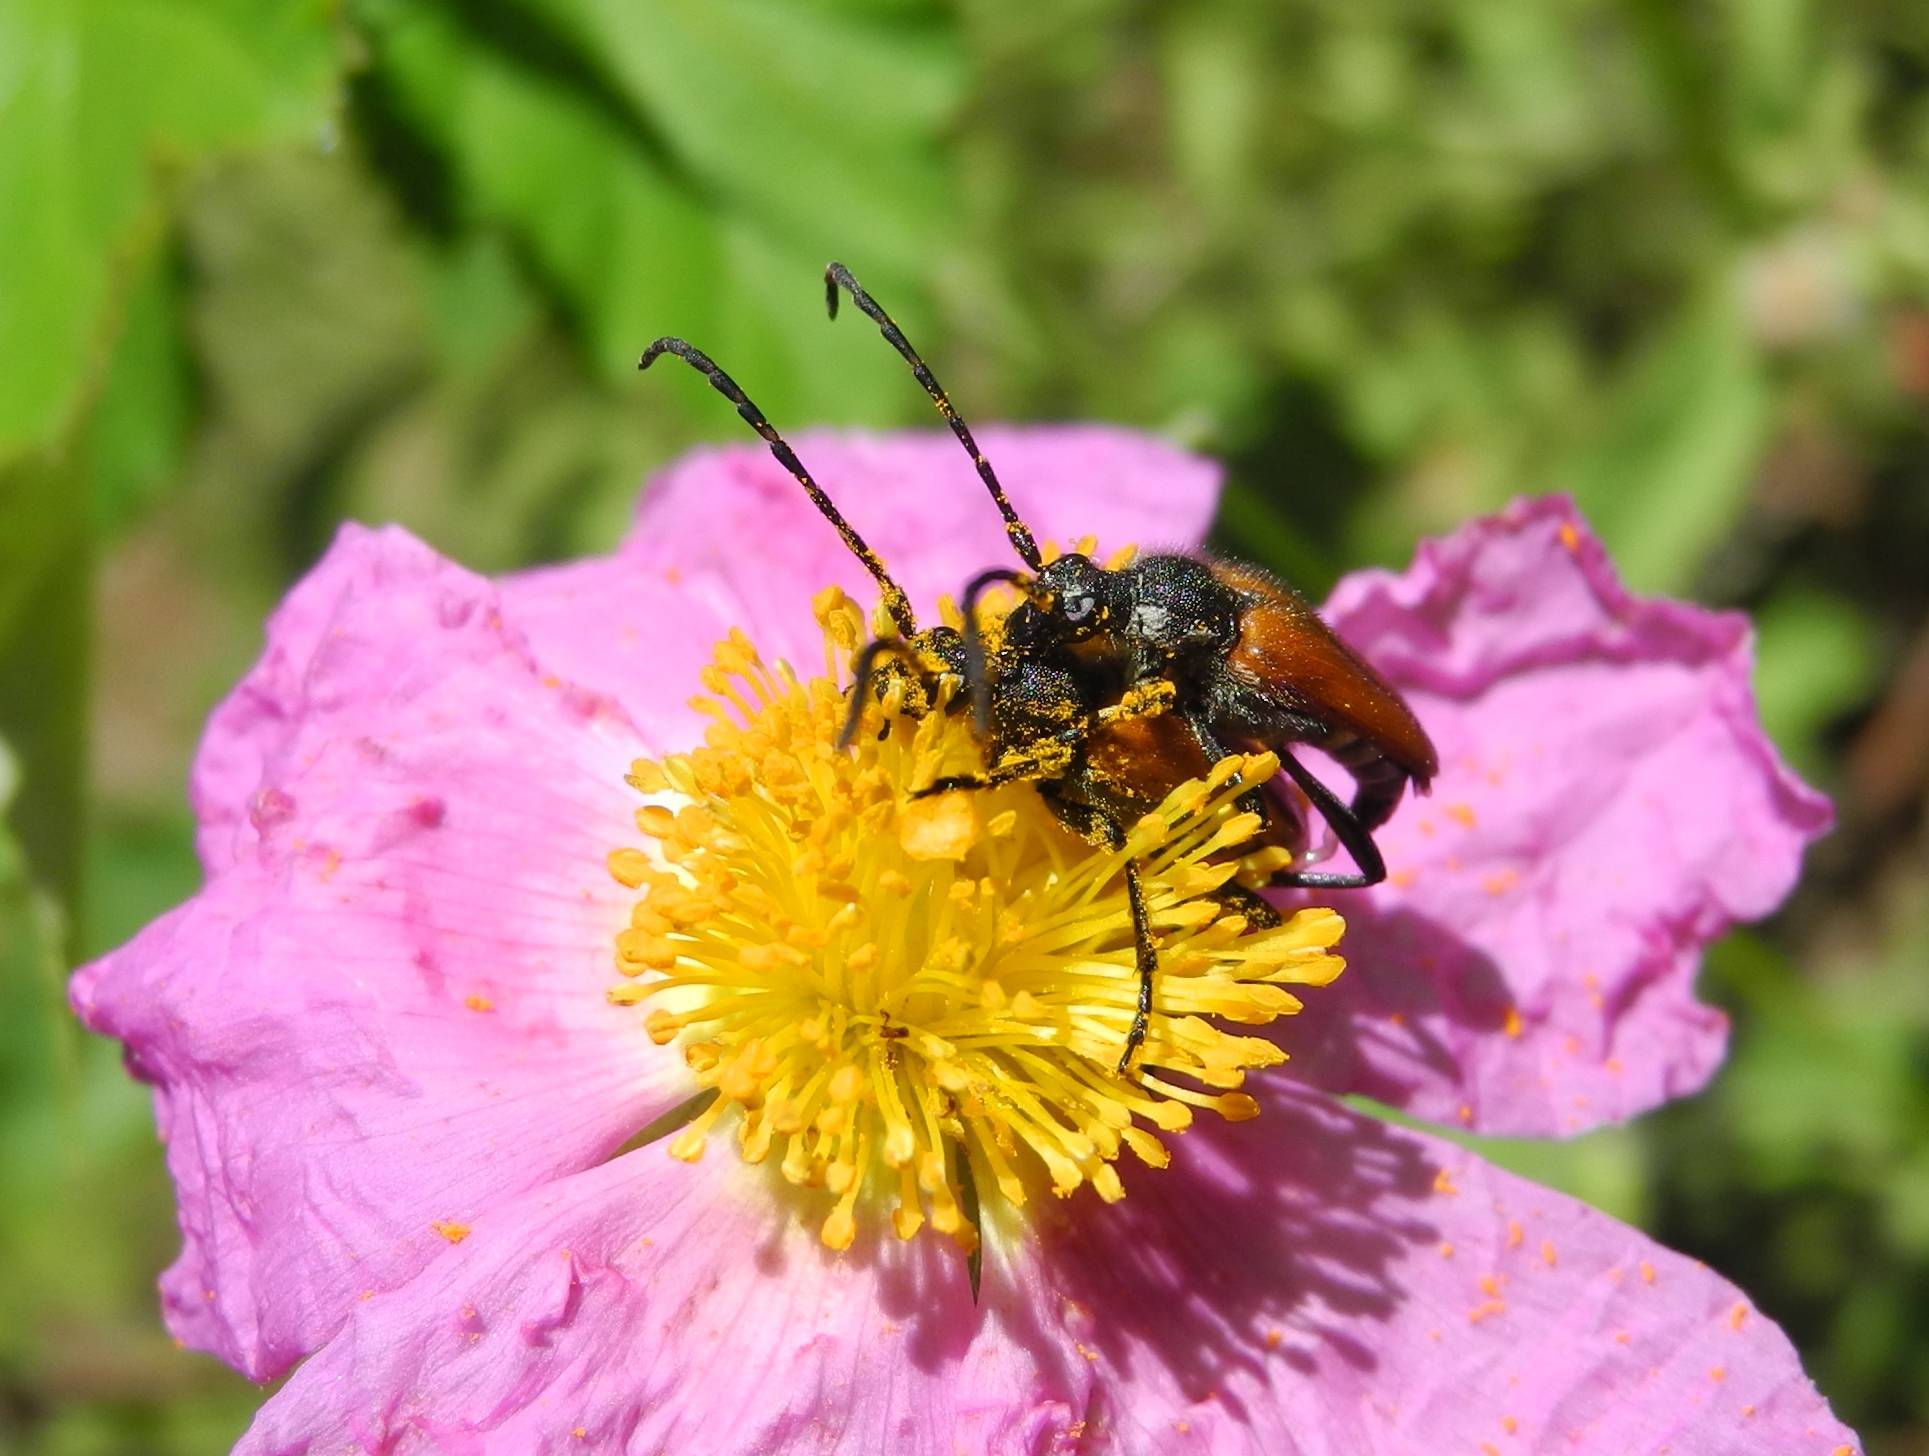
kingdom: Animalia
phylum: Arthropoda
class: Insecta
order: Coleoptera
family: Cerambycidae
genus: Pseudovadonia
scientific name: Pseudovadonia livida
